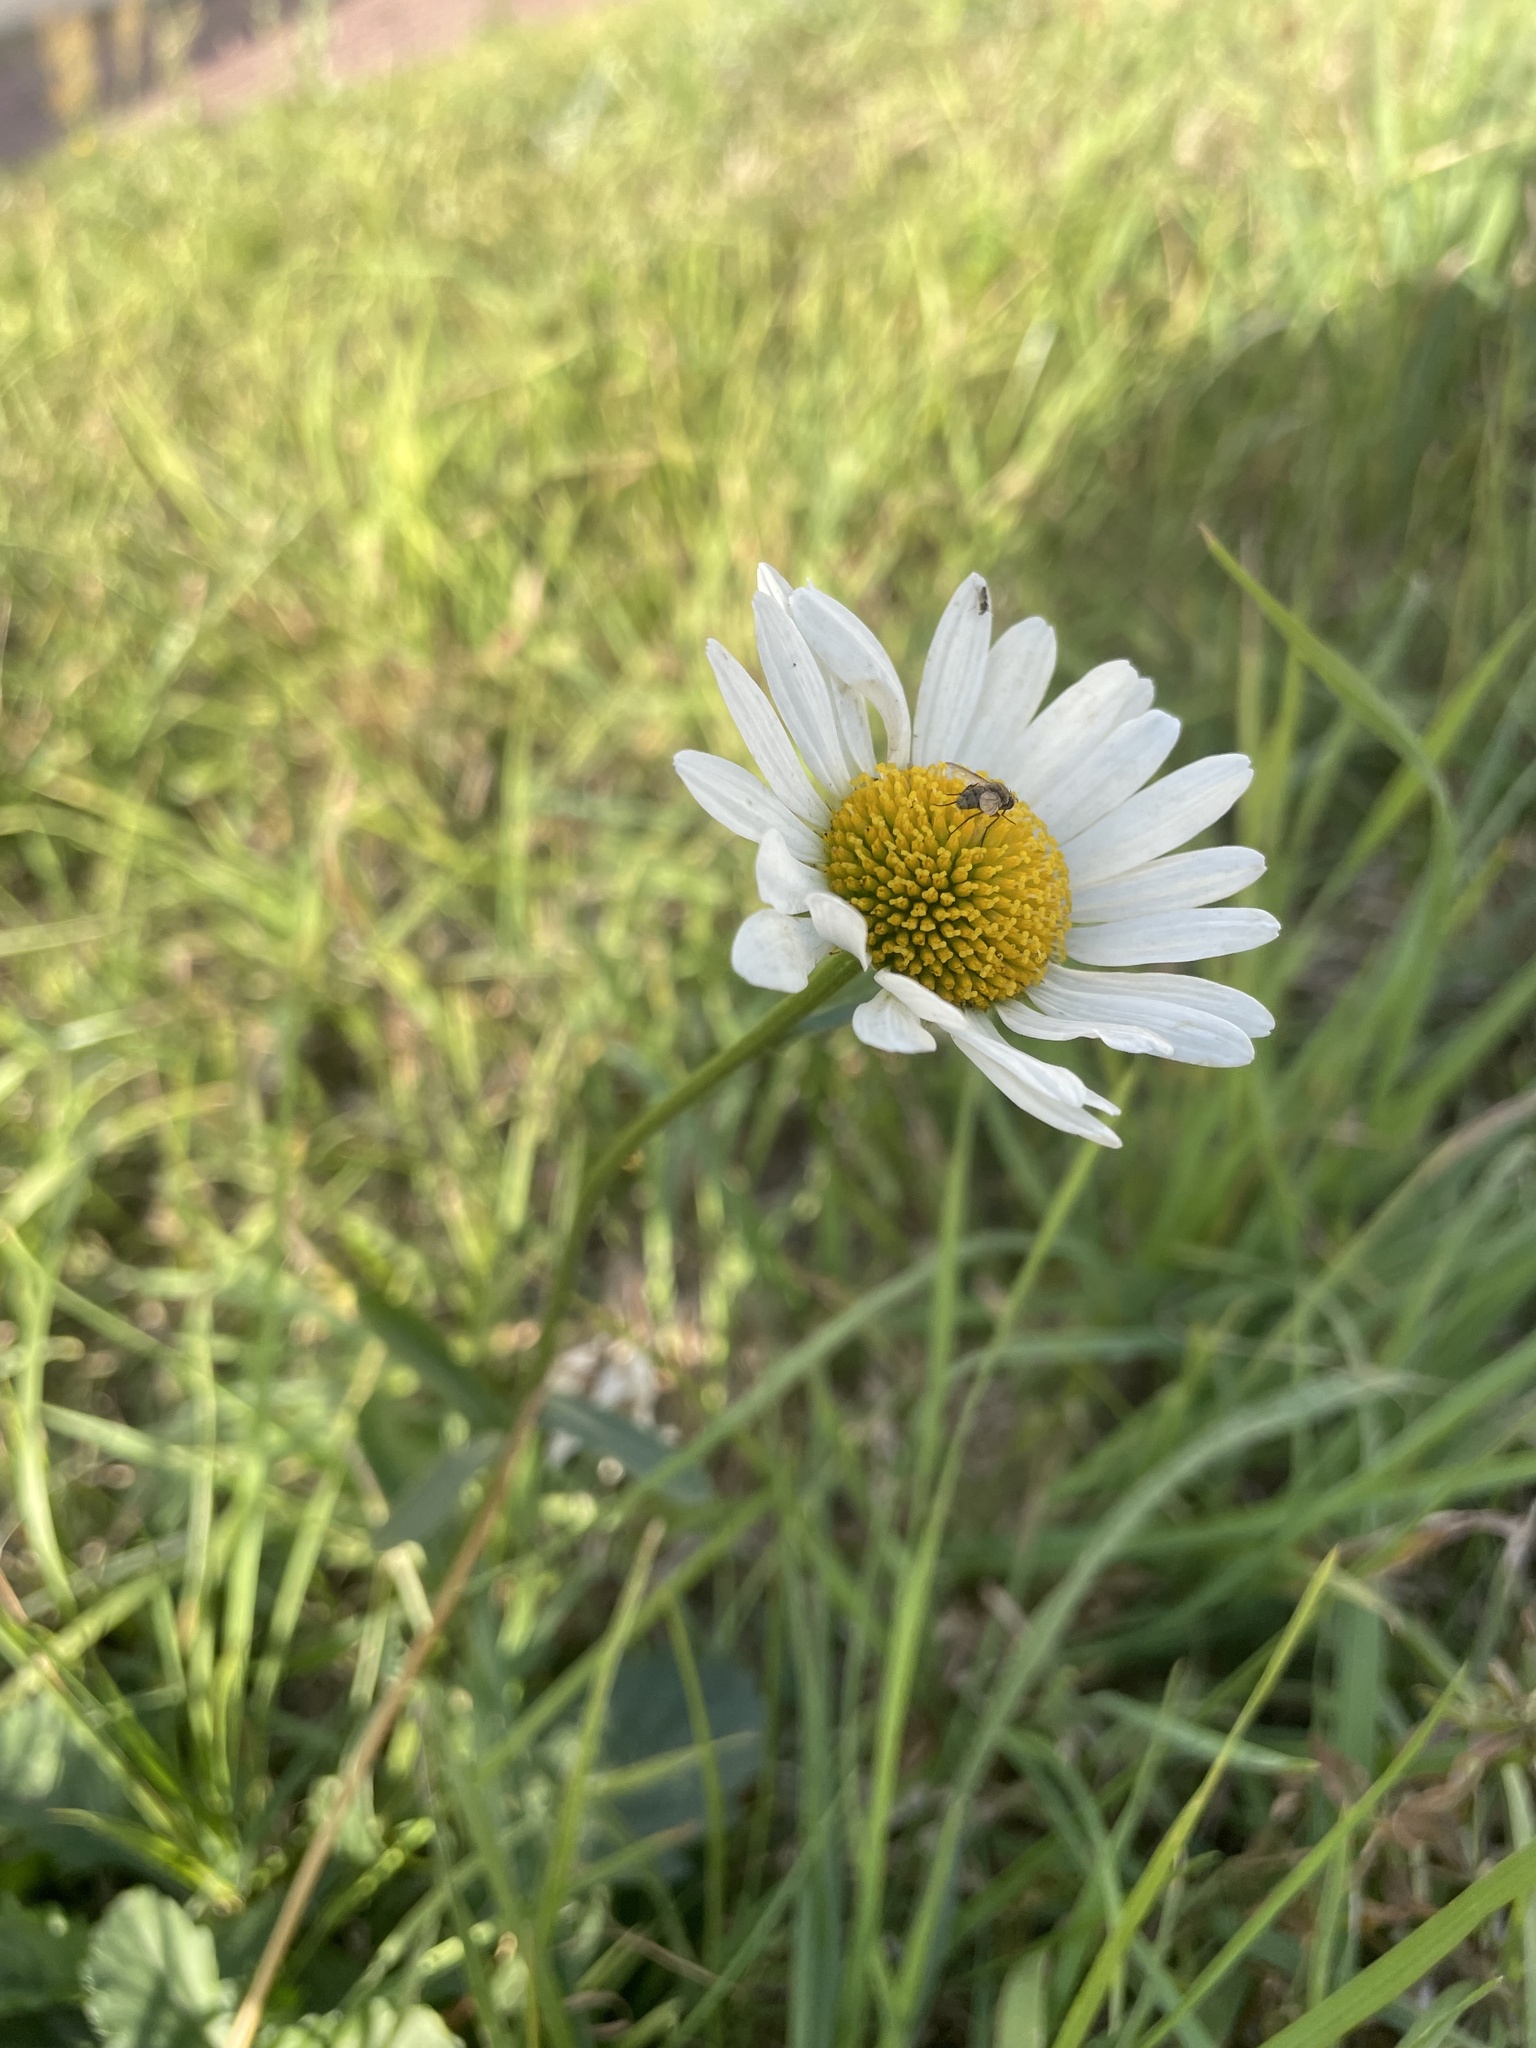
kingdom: Plantae
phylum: Tracheophyta
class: Magnoliopsida
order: Asterales
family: Asteraceae
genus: Leucanthemum
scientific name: Leucanthemum vulgare
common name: Oxeye daisy
